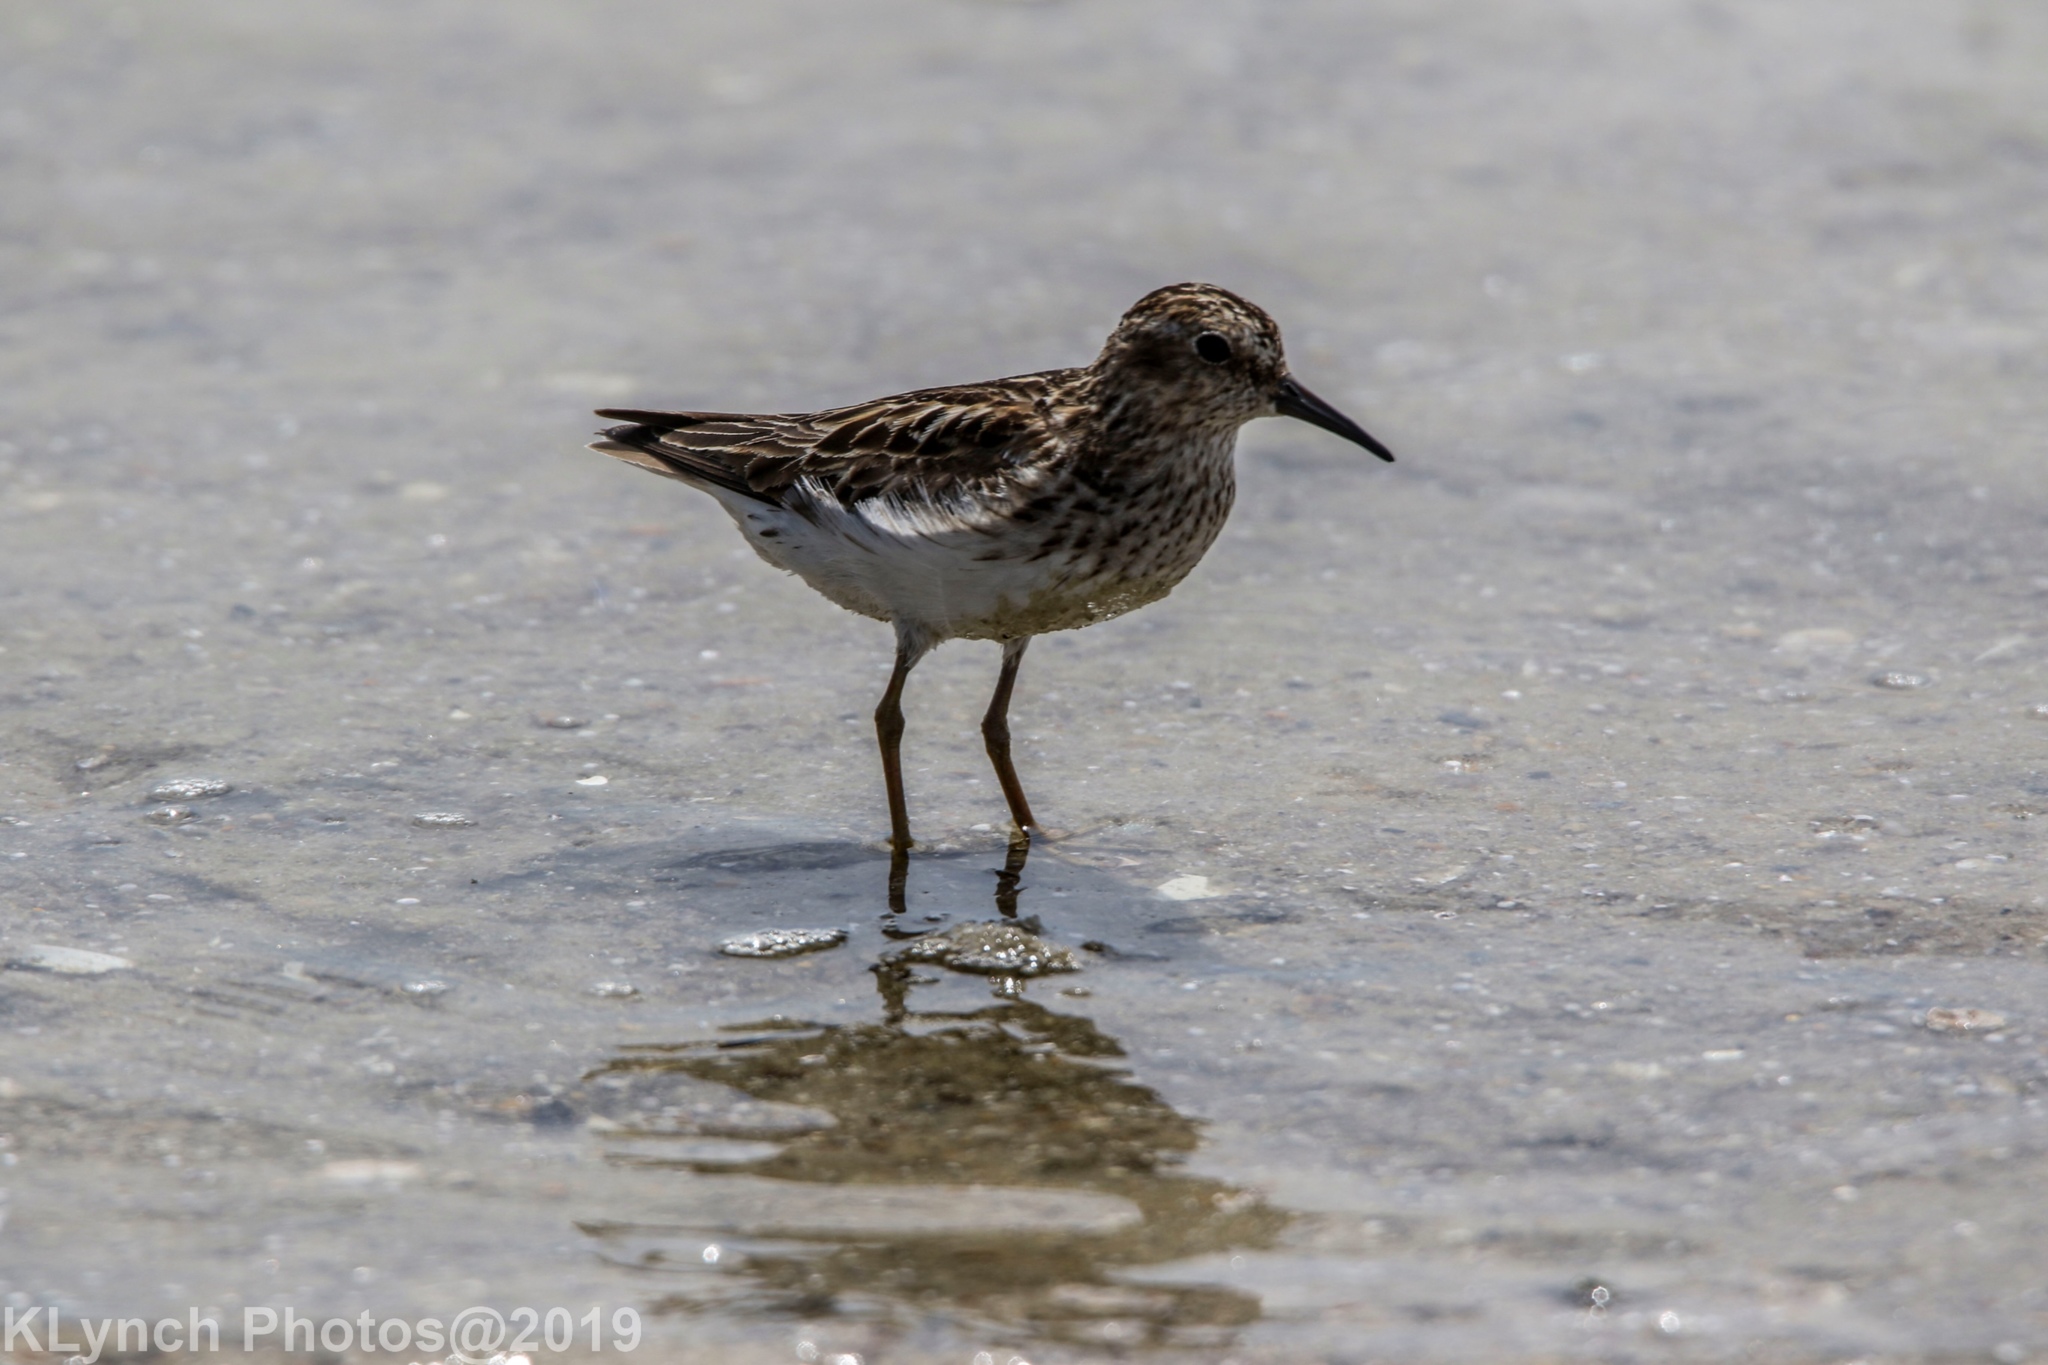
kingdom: Animalia
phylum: Chordata
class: Aves
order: Charadriiformes
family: Scolopacidae
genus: Calidris
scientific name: Calidris minutilla
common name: Least sandpiper
